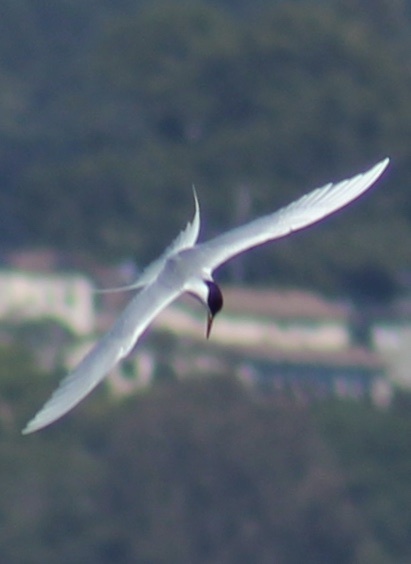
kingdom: Animalia
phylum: Chordata
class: Aves
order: Charadriiformes
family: Laridae
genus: Sterna
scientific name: Sterna forsteri
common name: Forster's tern
